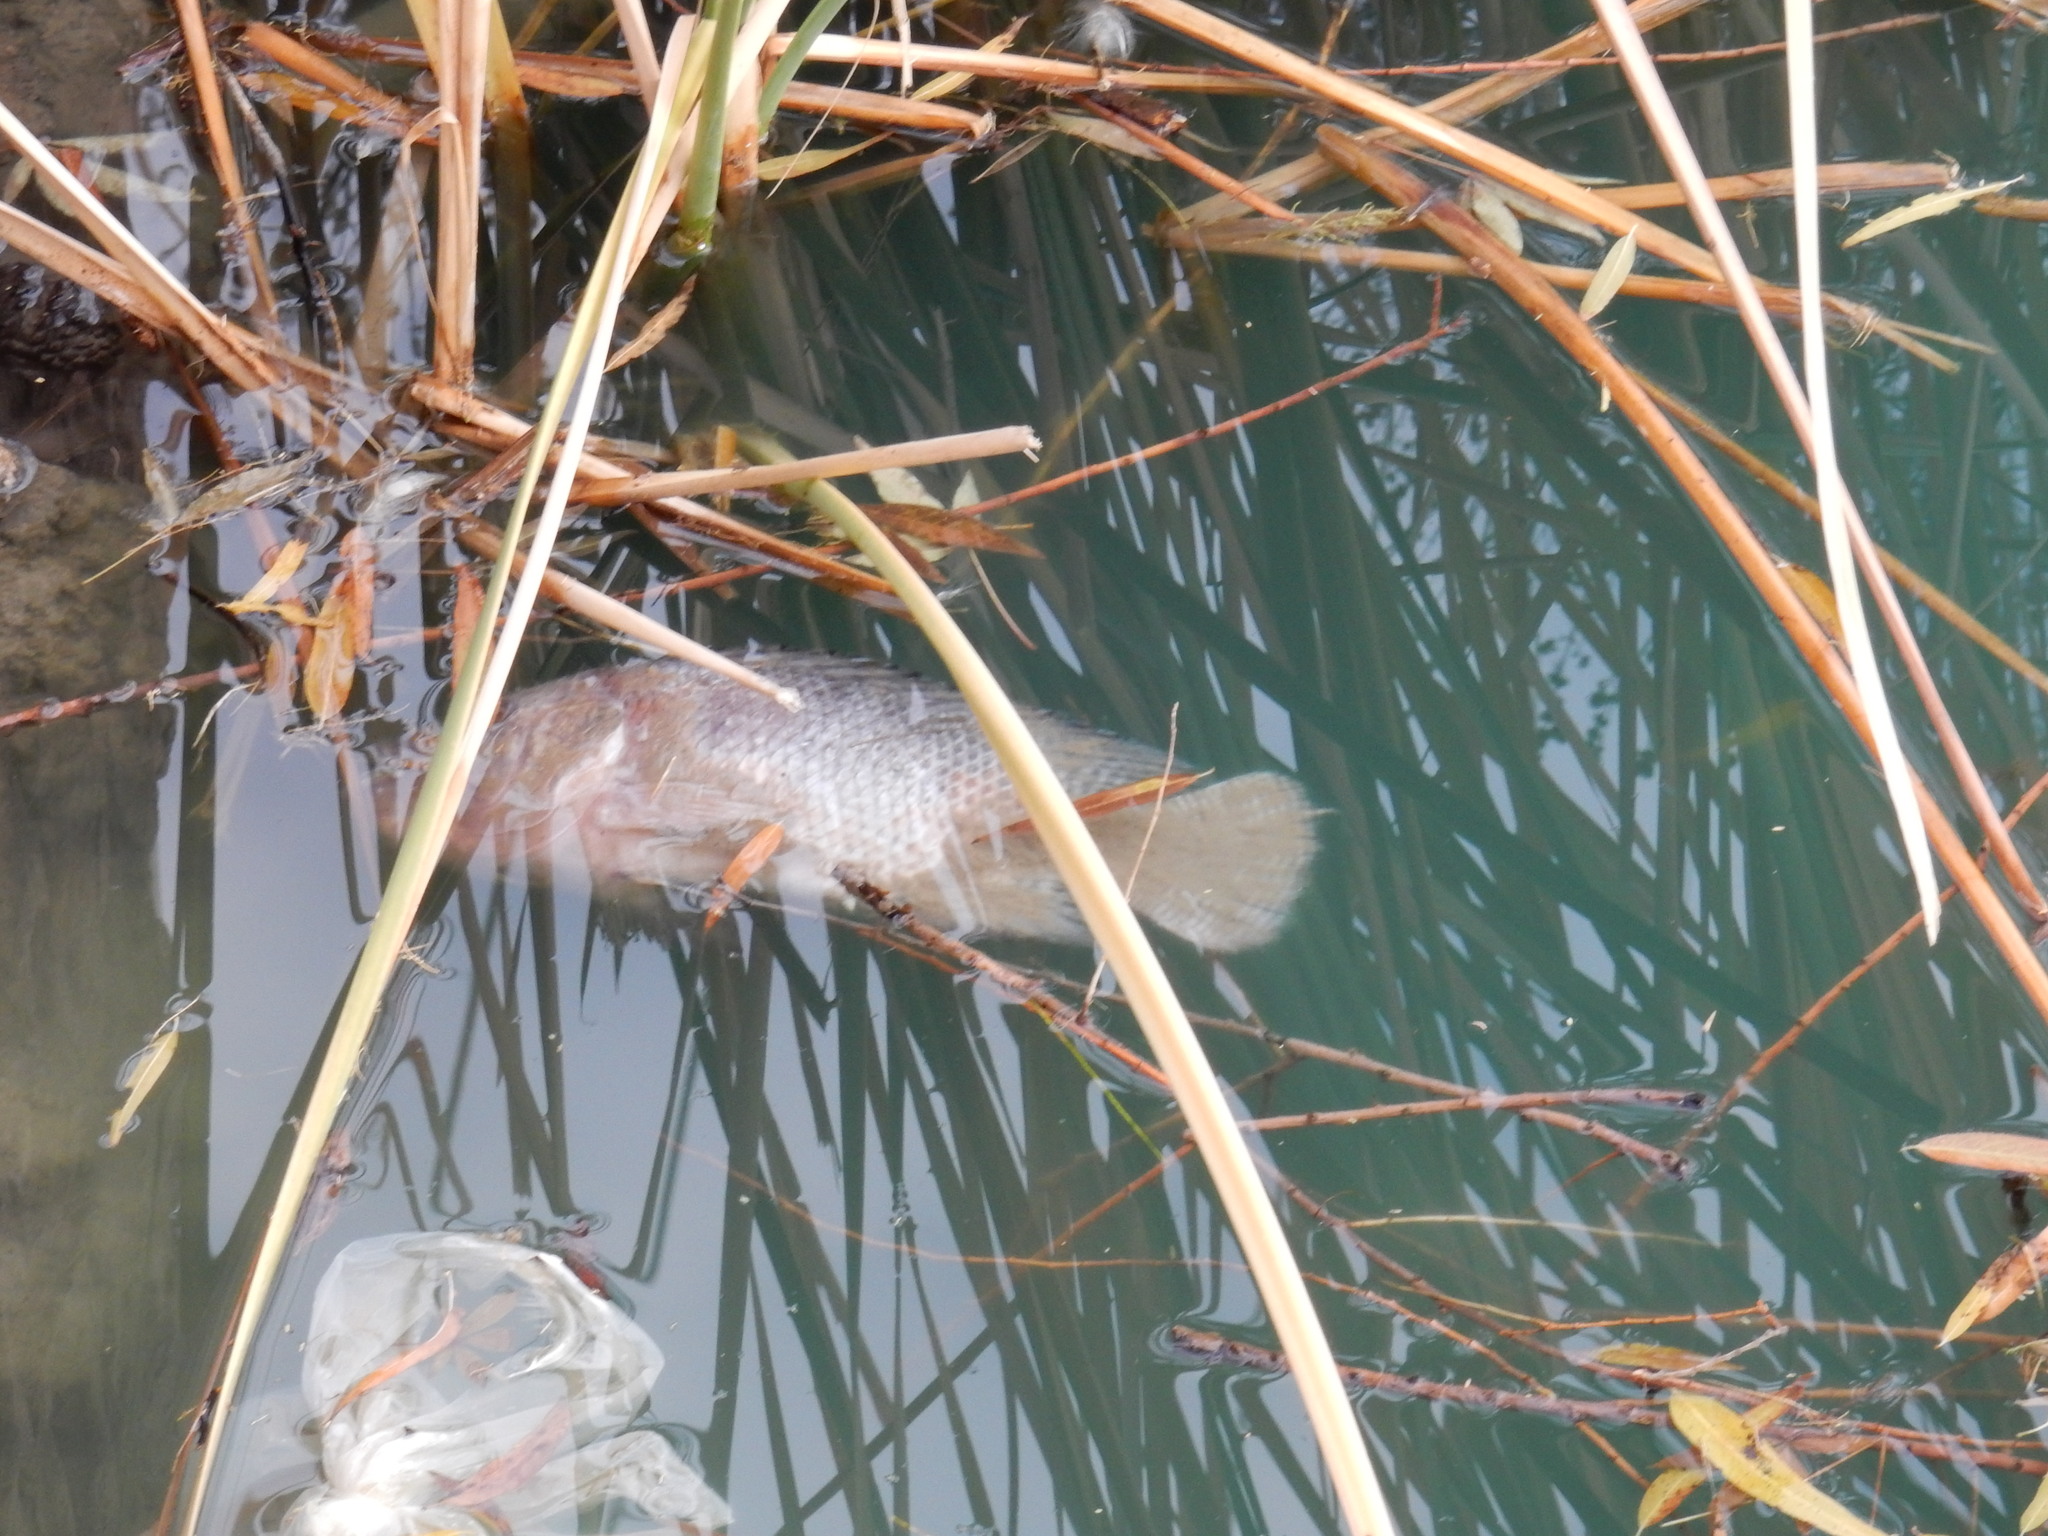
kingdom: Animalia
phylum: Chordata
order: Perciformes
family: Cichlidae
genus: Oreochromis
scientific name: Oreochromis niloticus
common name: Nile tilapia
